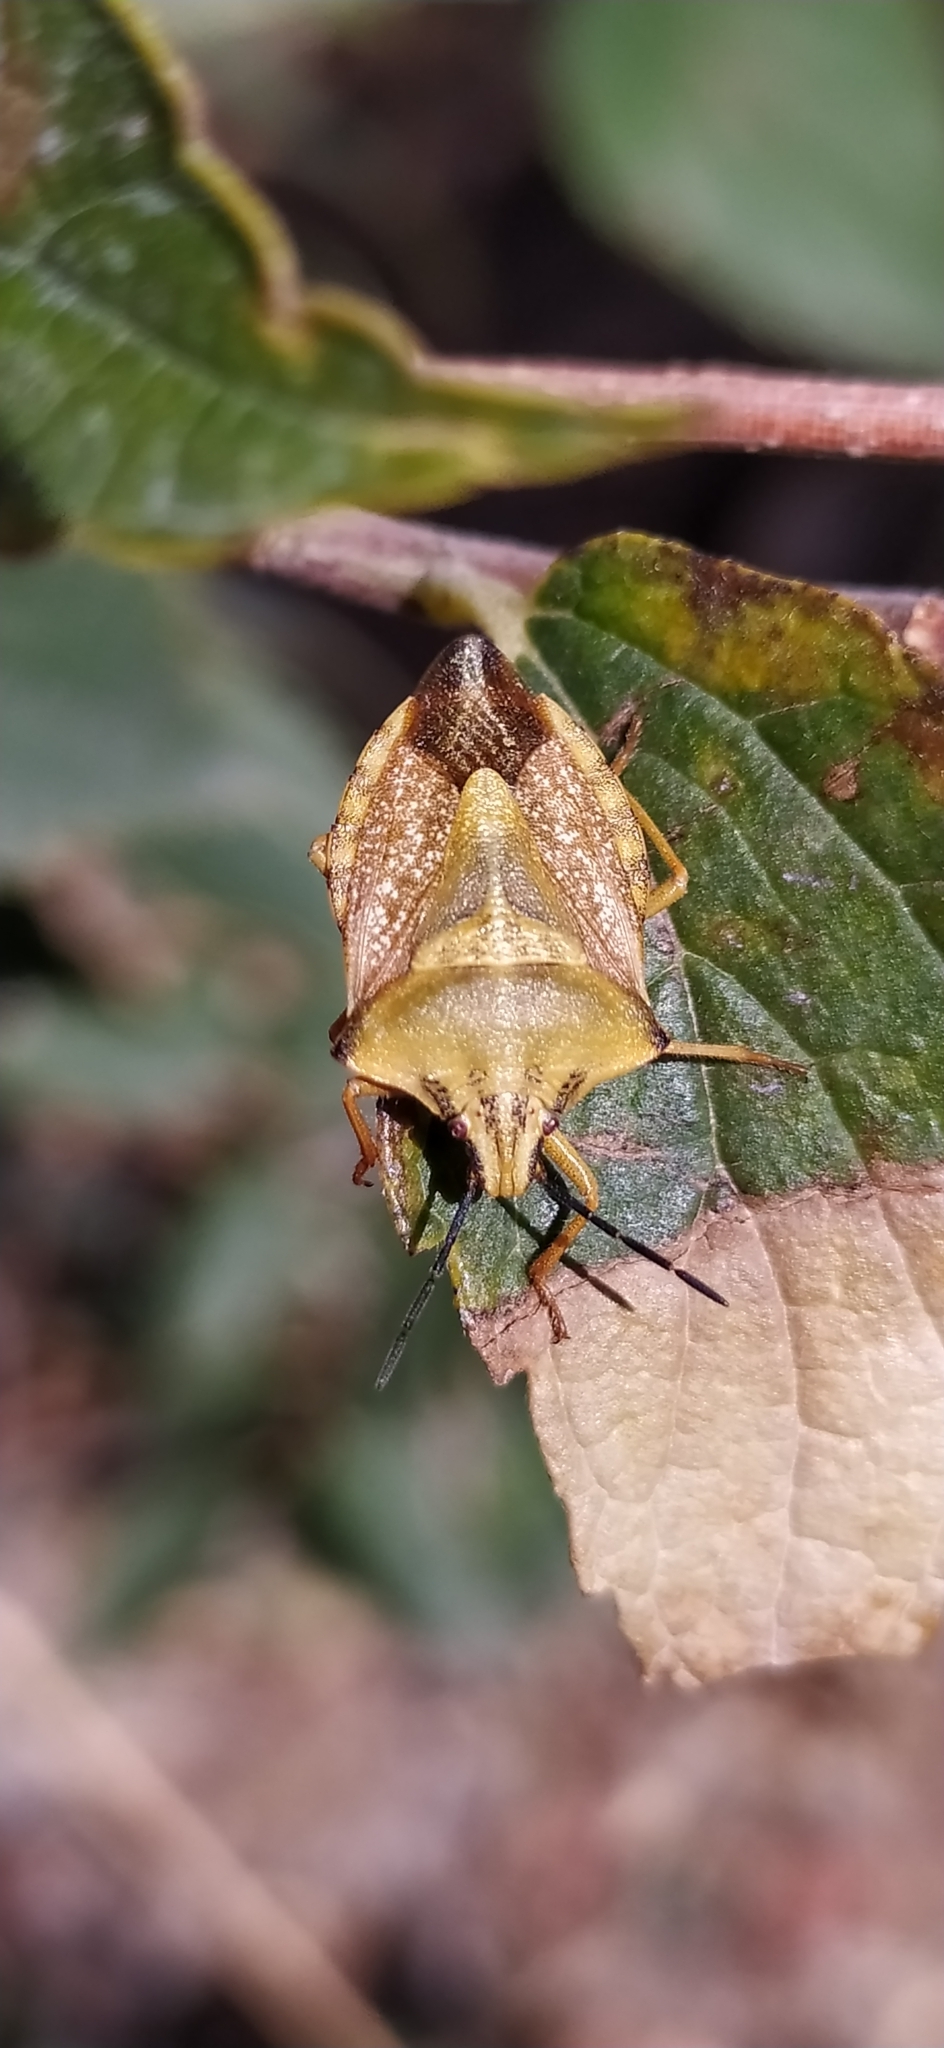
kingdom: Animalia
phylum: Arthropoda
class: Insecta
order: Hemiptera
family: Pentatomidae
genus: Carpocoris
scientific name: Carpocoris coreanus
